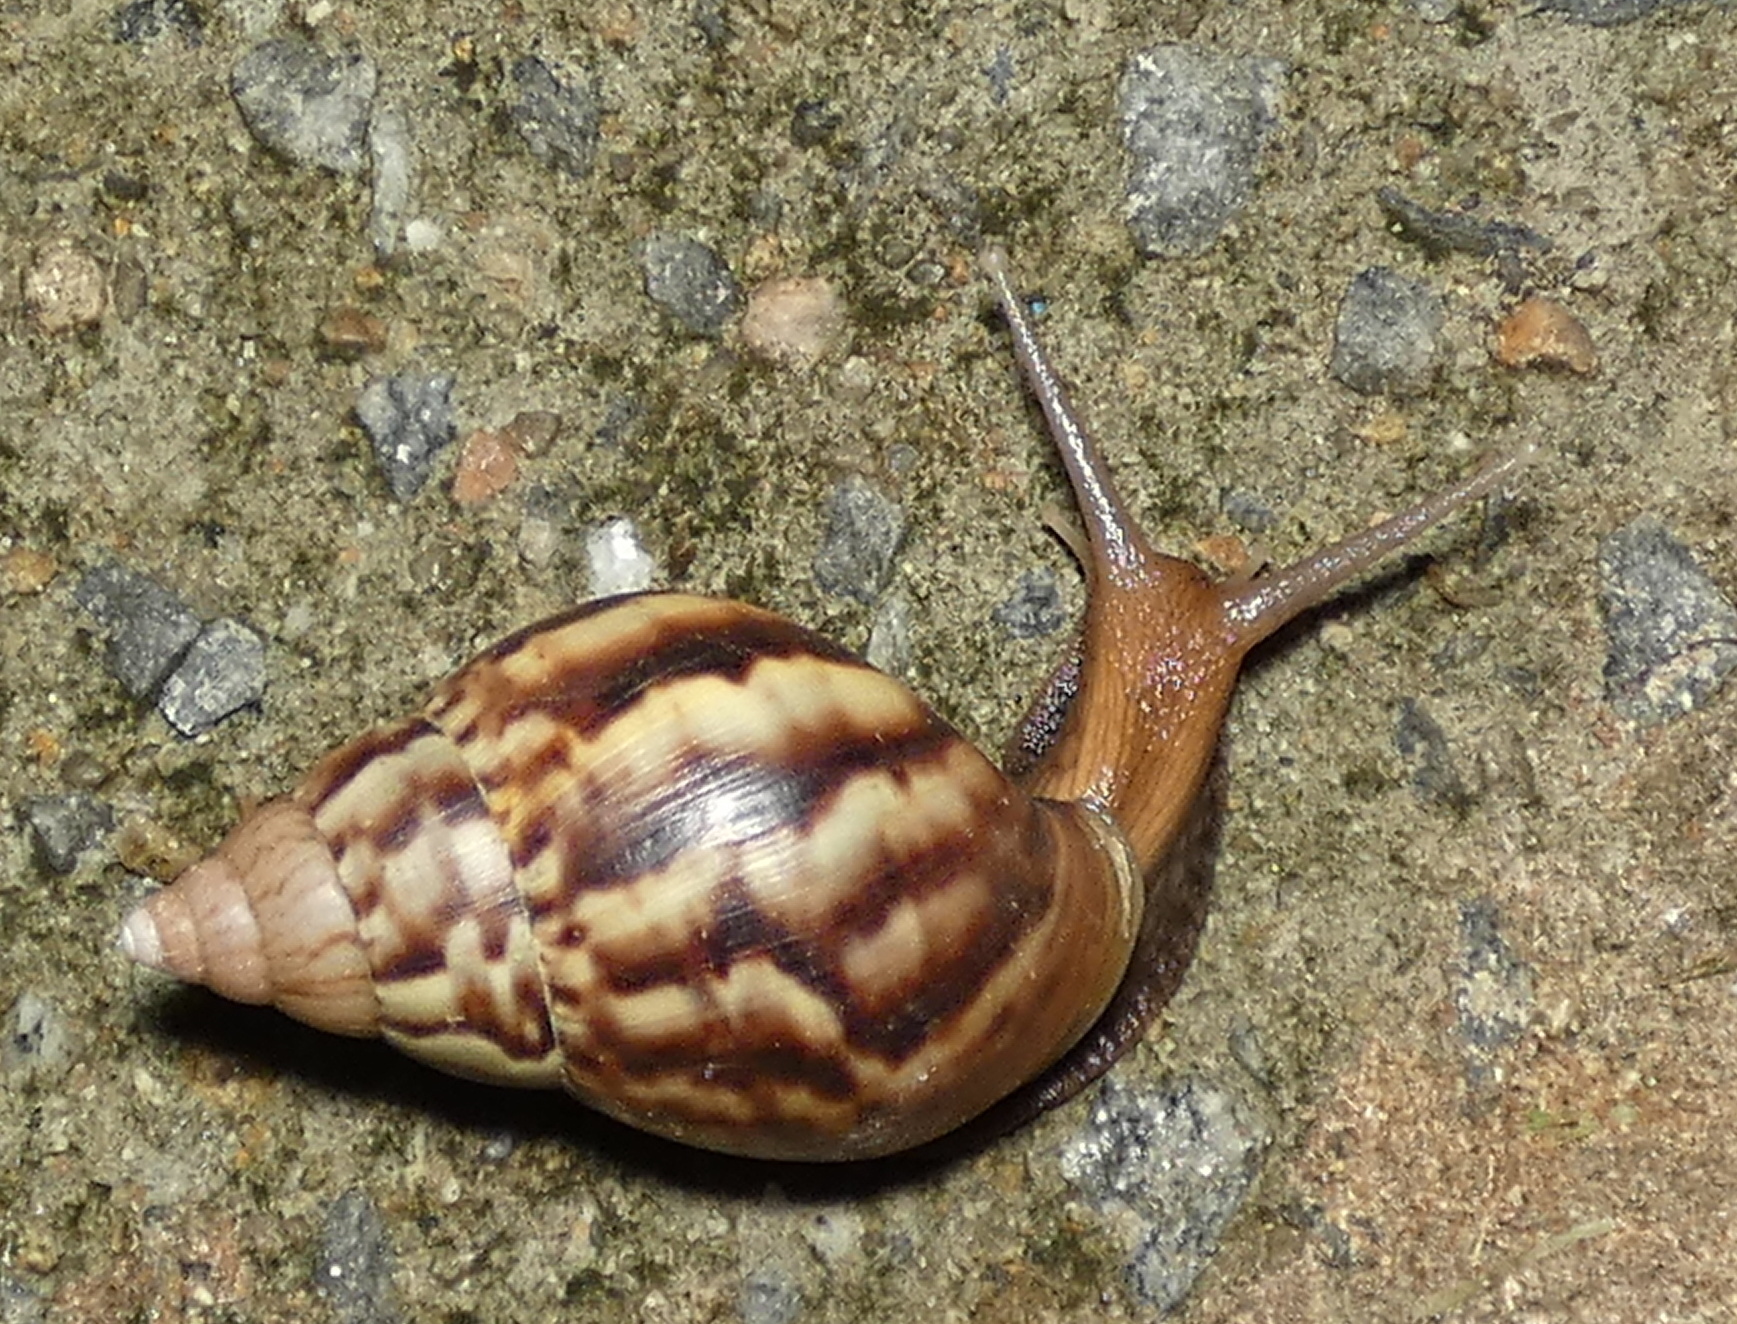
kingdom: Animalia
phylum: Mollusca
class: Gastropoda
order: Stylommatophora
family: Achatinidae
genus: Lissachatina
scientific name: Lissachatina fulica
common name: Giant african snail
